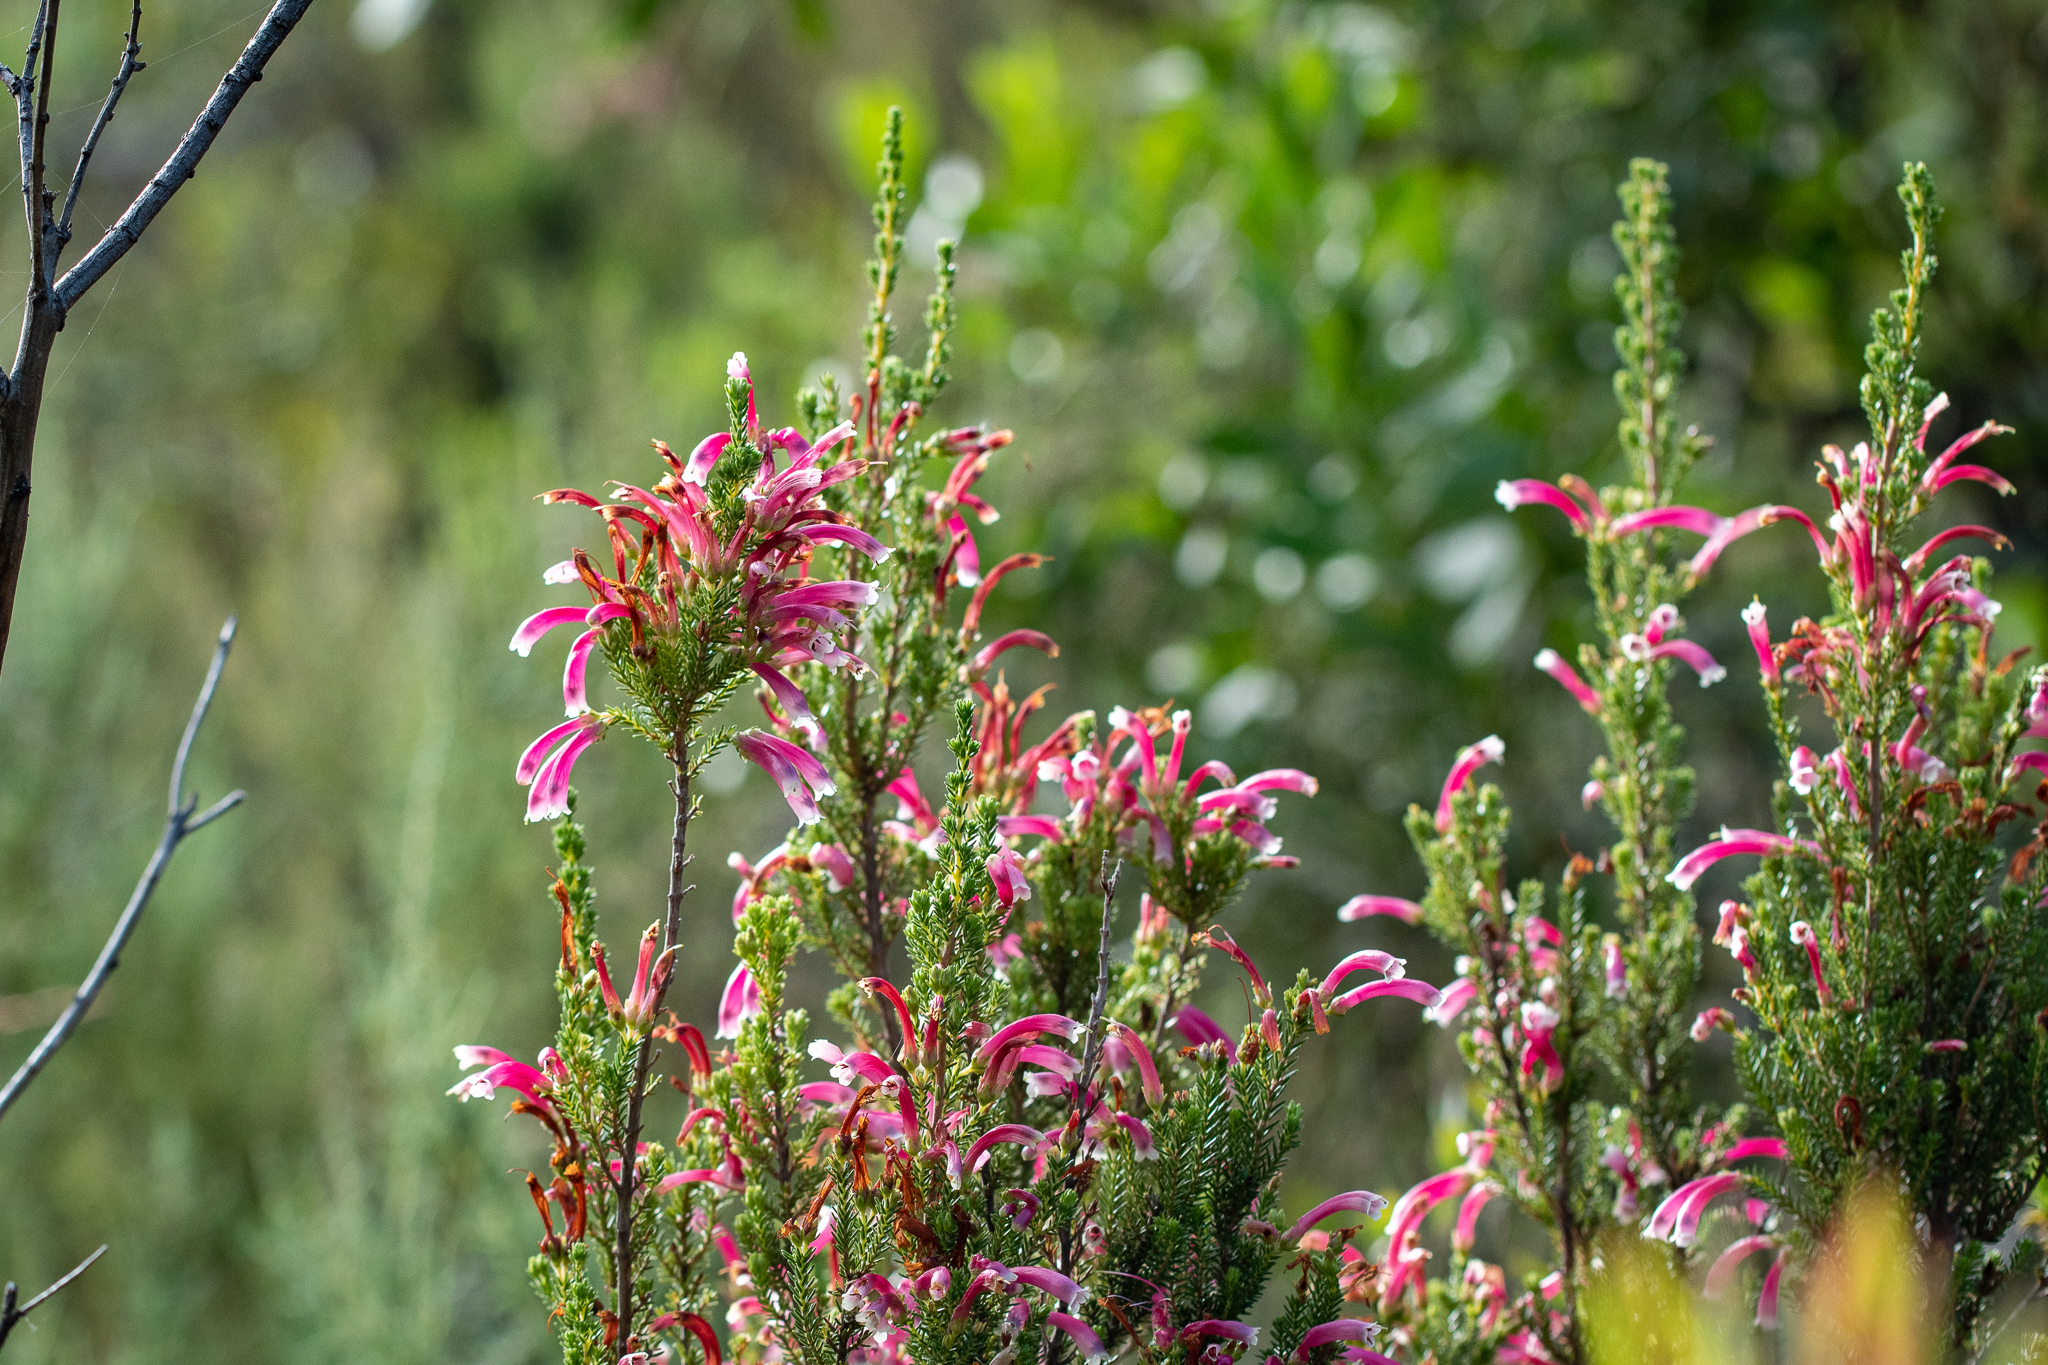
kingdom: Plantae
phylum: Tracheophyta
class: Magnoliopsida
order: Ericales
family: Ericaceae
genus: Erica
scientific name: Erica discolor
